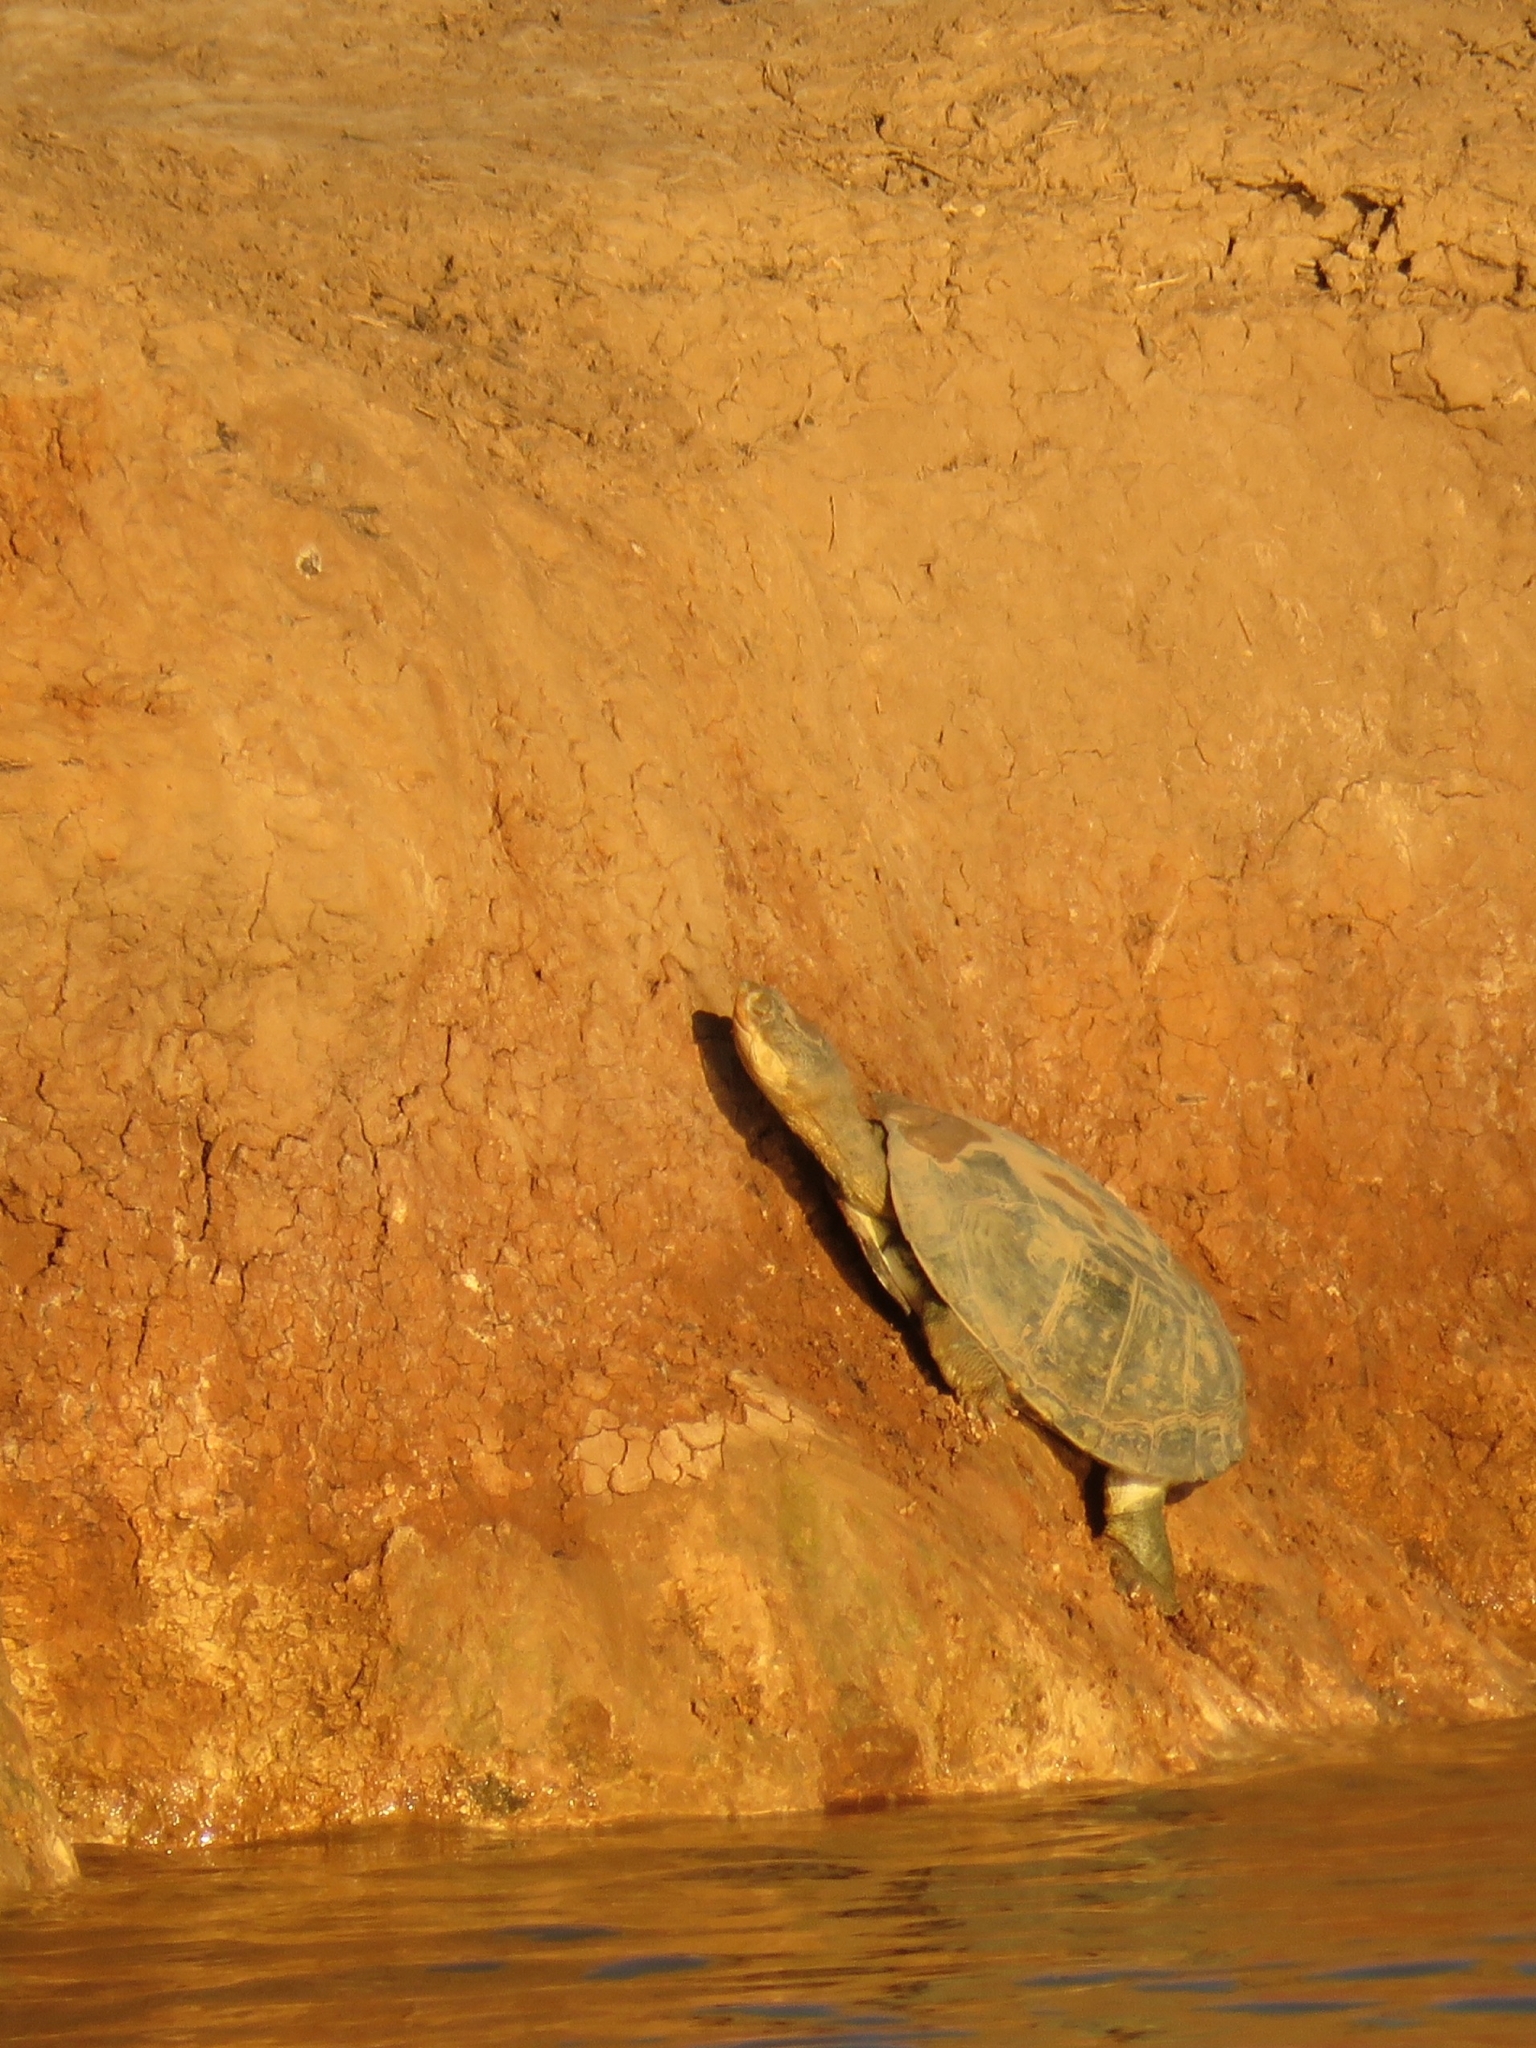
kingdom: Animalia
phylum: Chordata
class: Testudines
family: Pelomedusidae
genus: Pelomedusa
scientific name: Pelomedusa galeata
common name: South african helmeted terrapin
